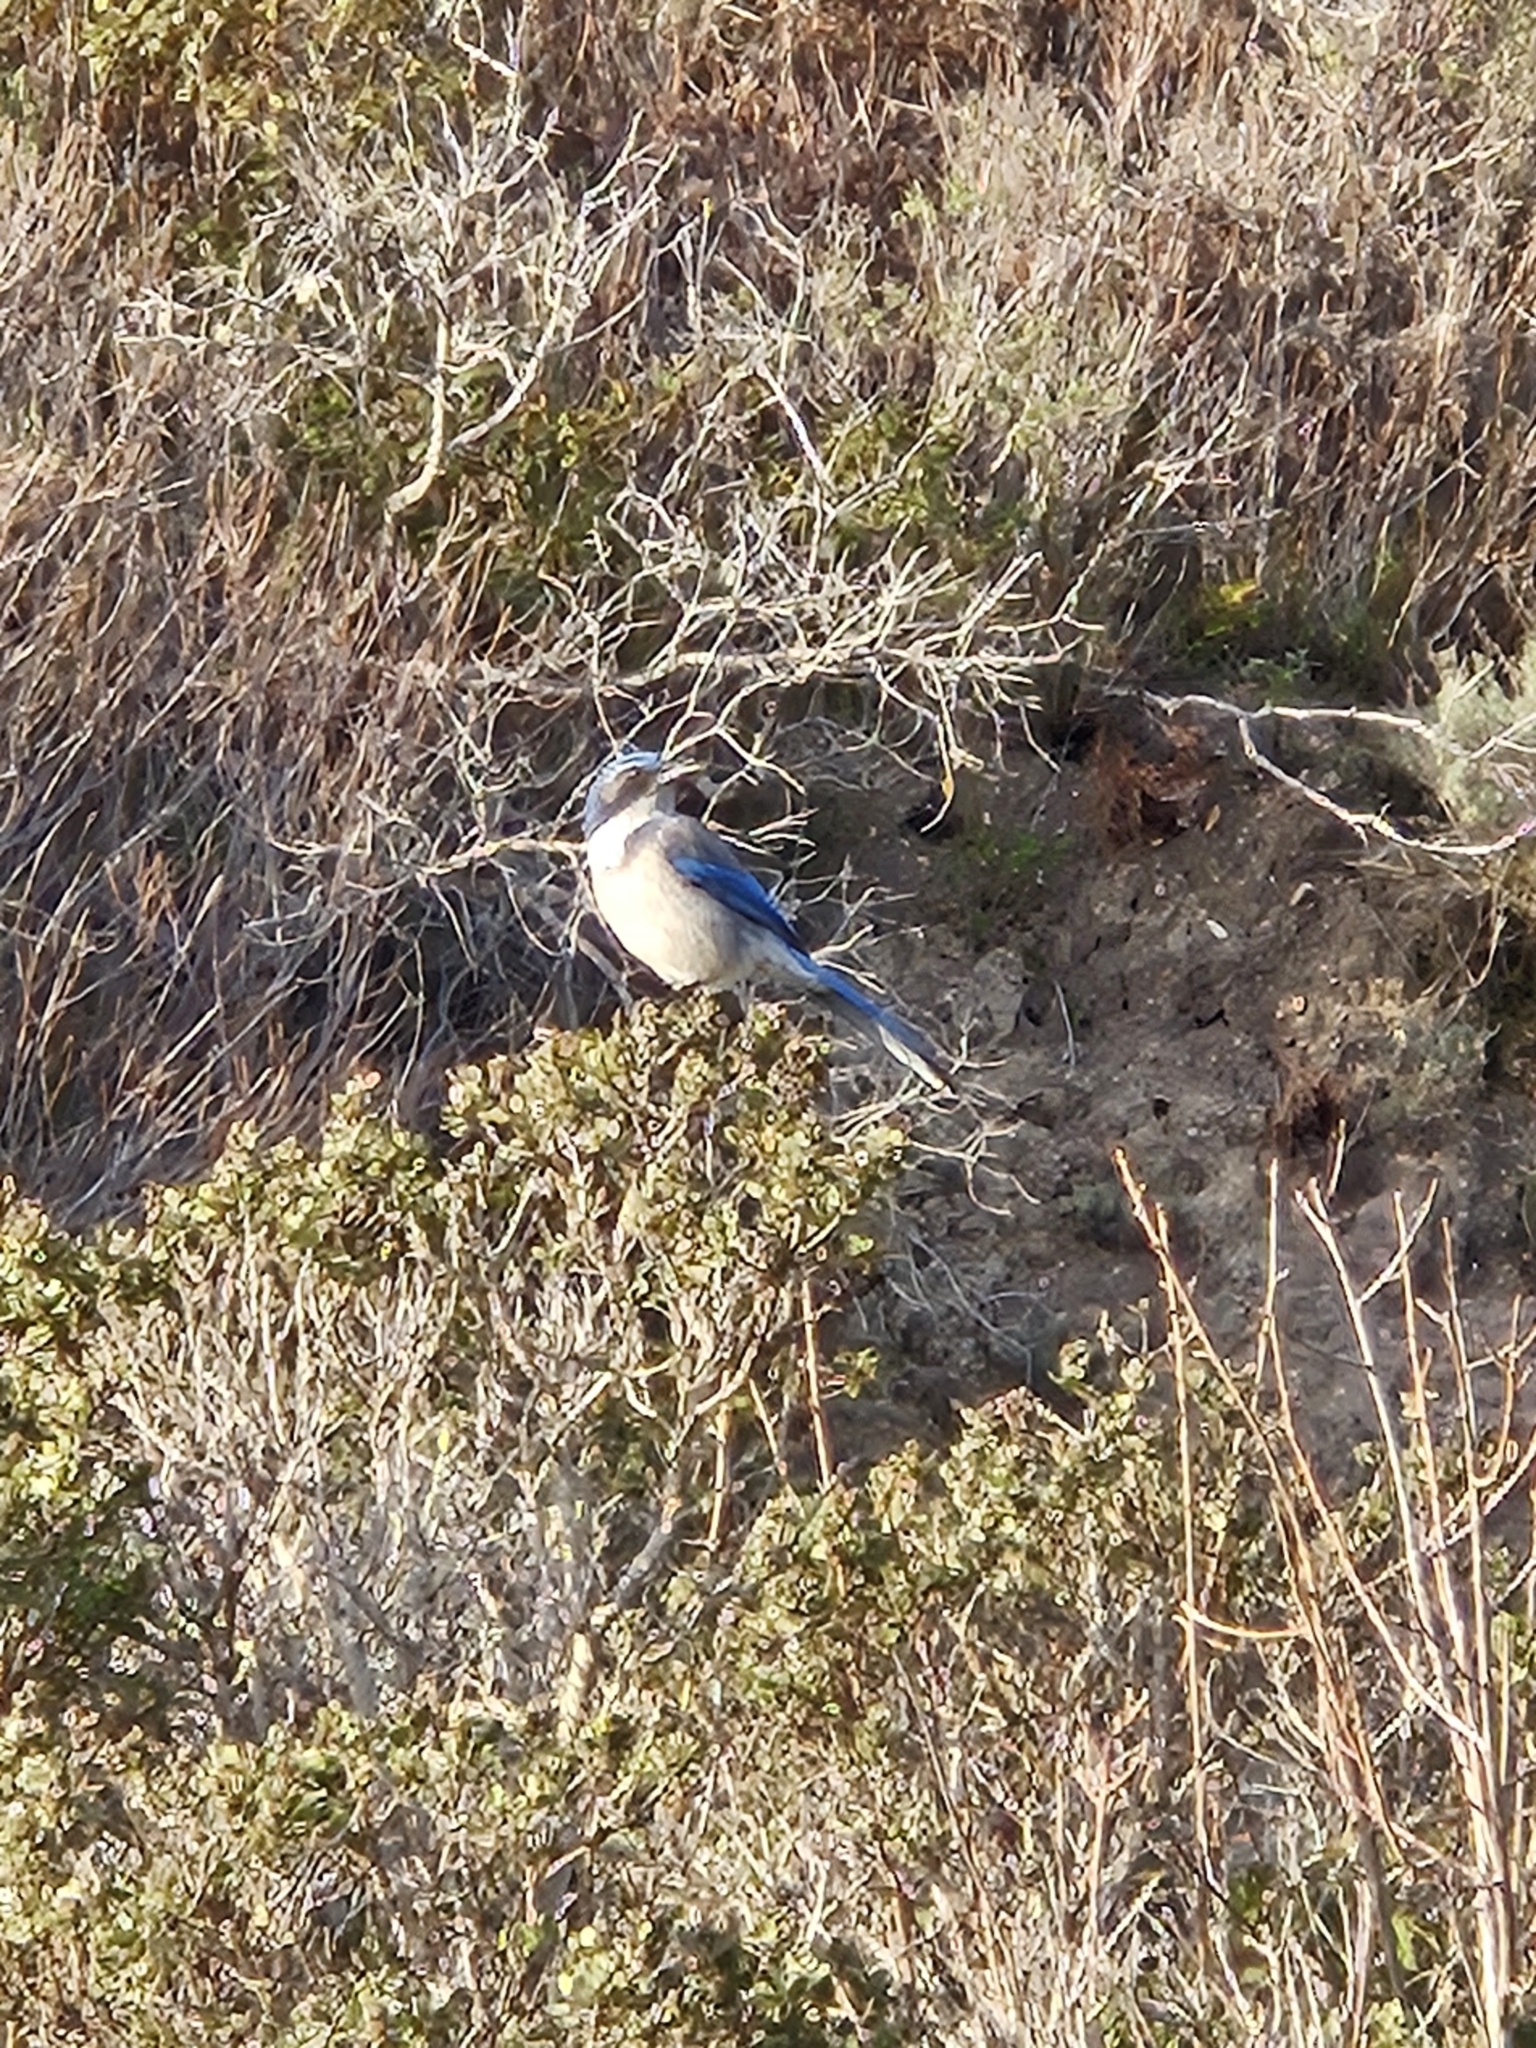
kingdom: Animalia
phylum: Chordata
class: Aves
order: Passeriformes
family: Corvidae
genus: Aphelocoma
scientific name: Aphelocoma californica
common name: California scrub-jay
